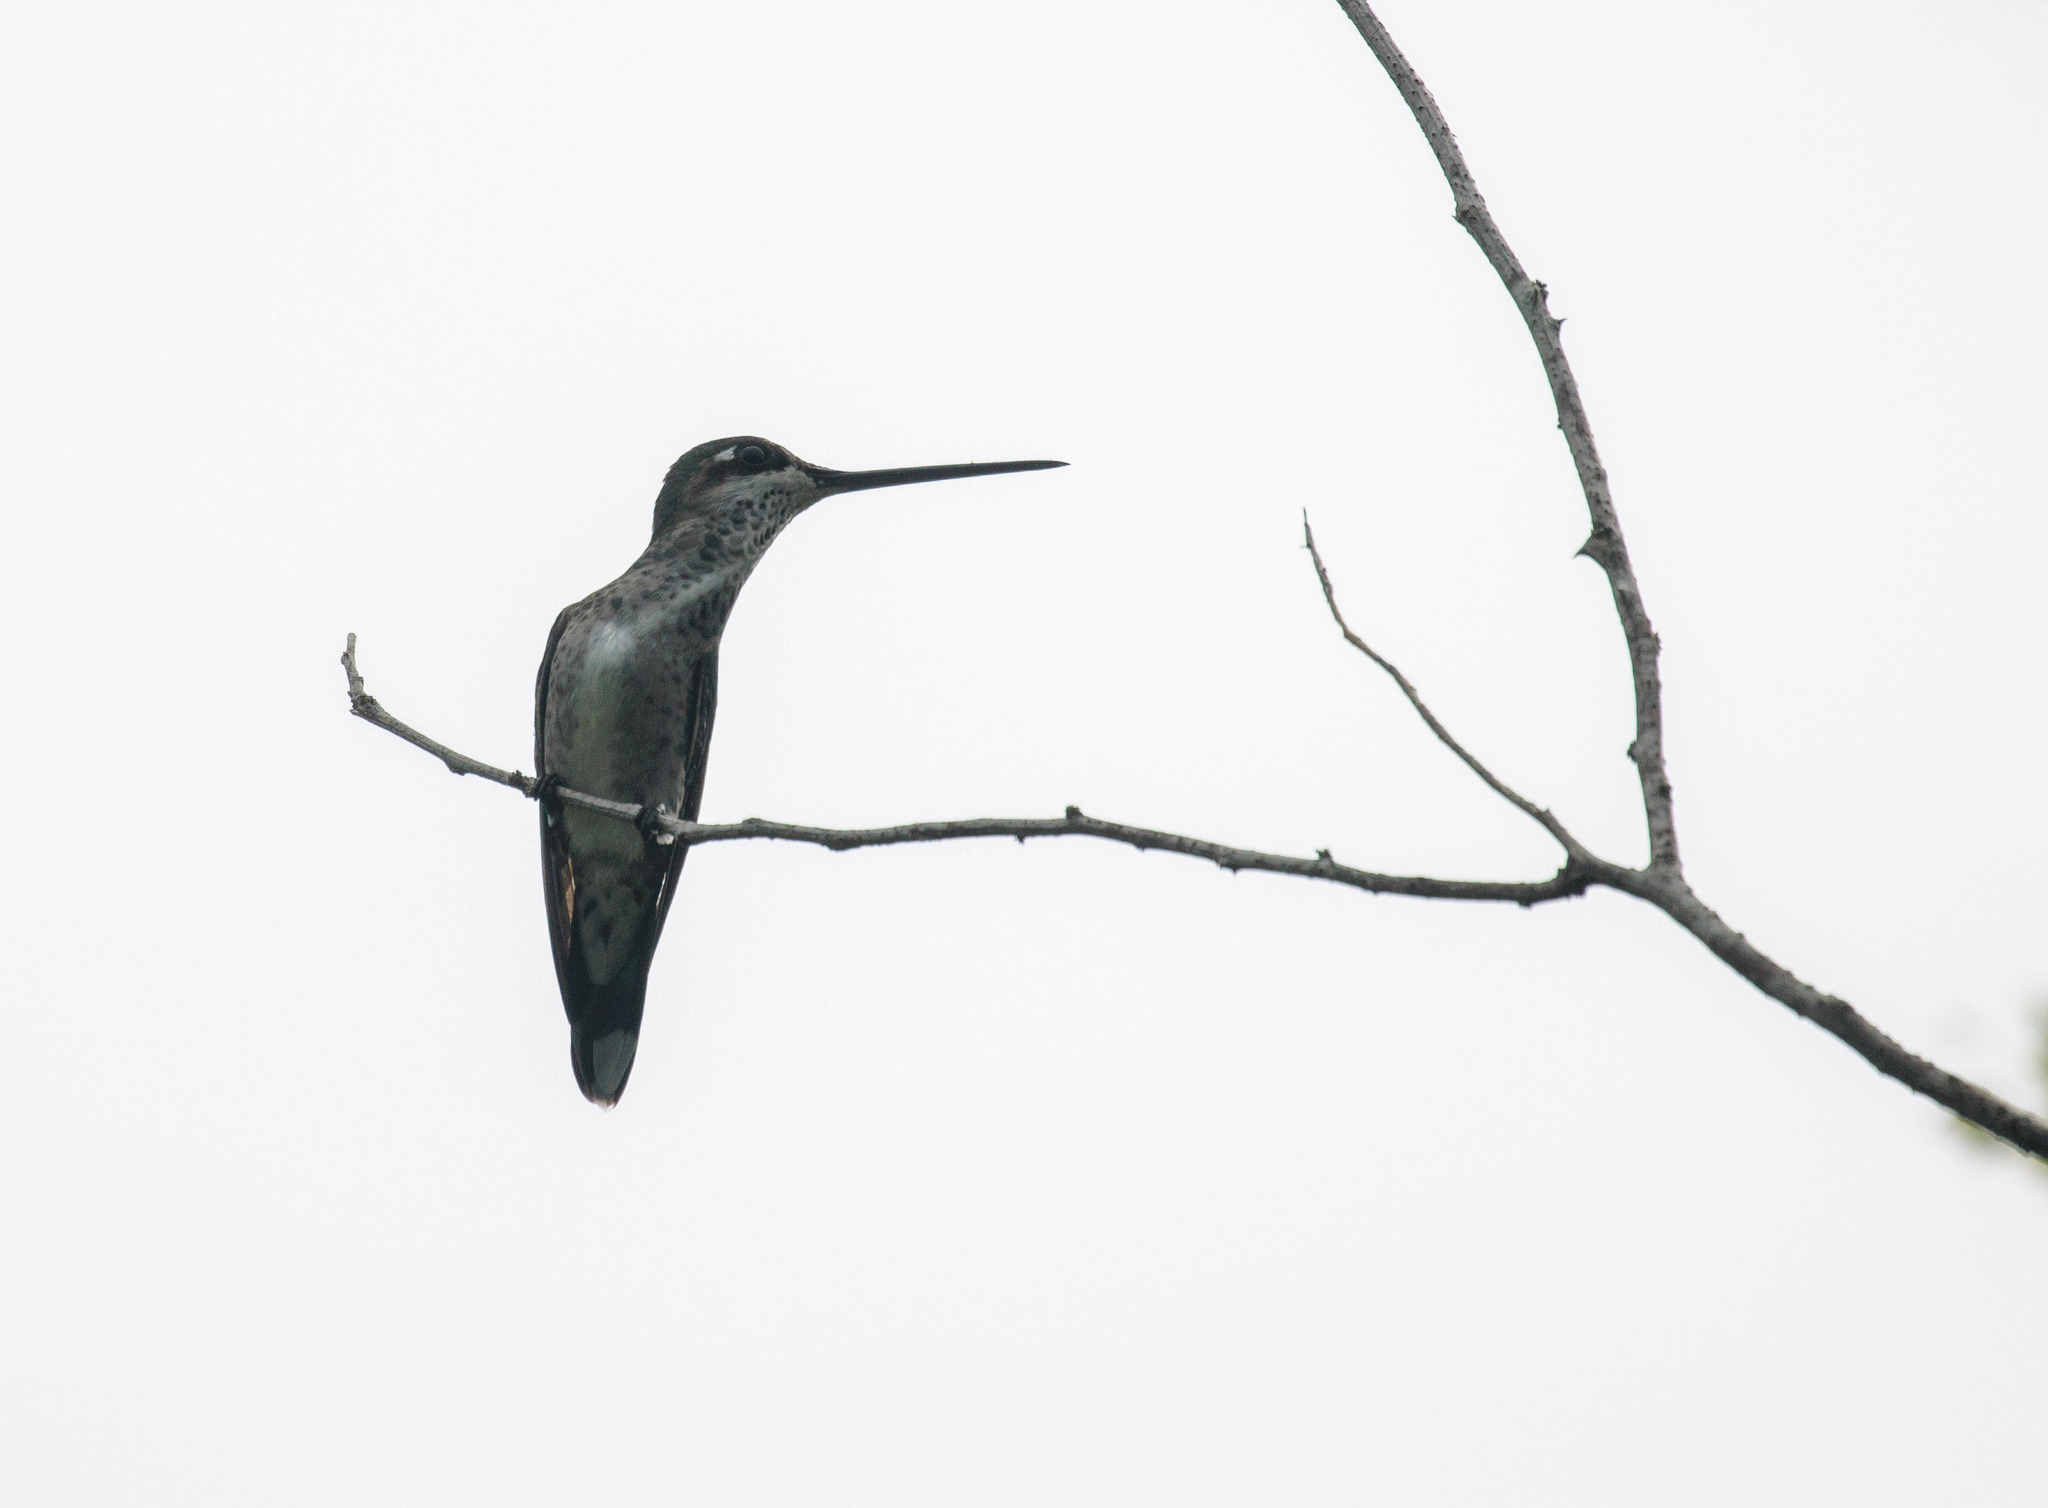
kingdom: Animalia
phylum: Chordata
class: Aves
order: Apodiformes
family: Trochilidae
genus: Heliomaster
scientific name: Heliomaster squamosus
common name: Stripe-breasted starthroat
